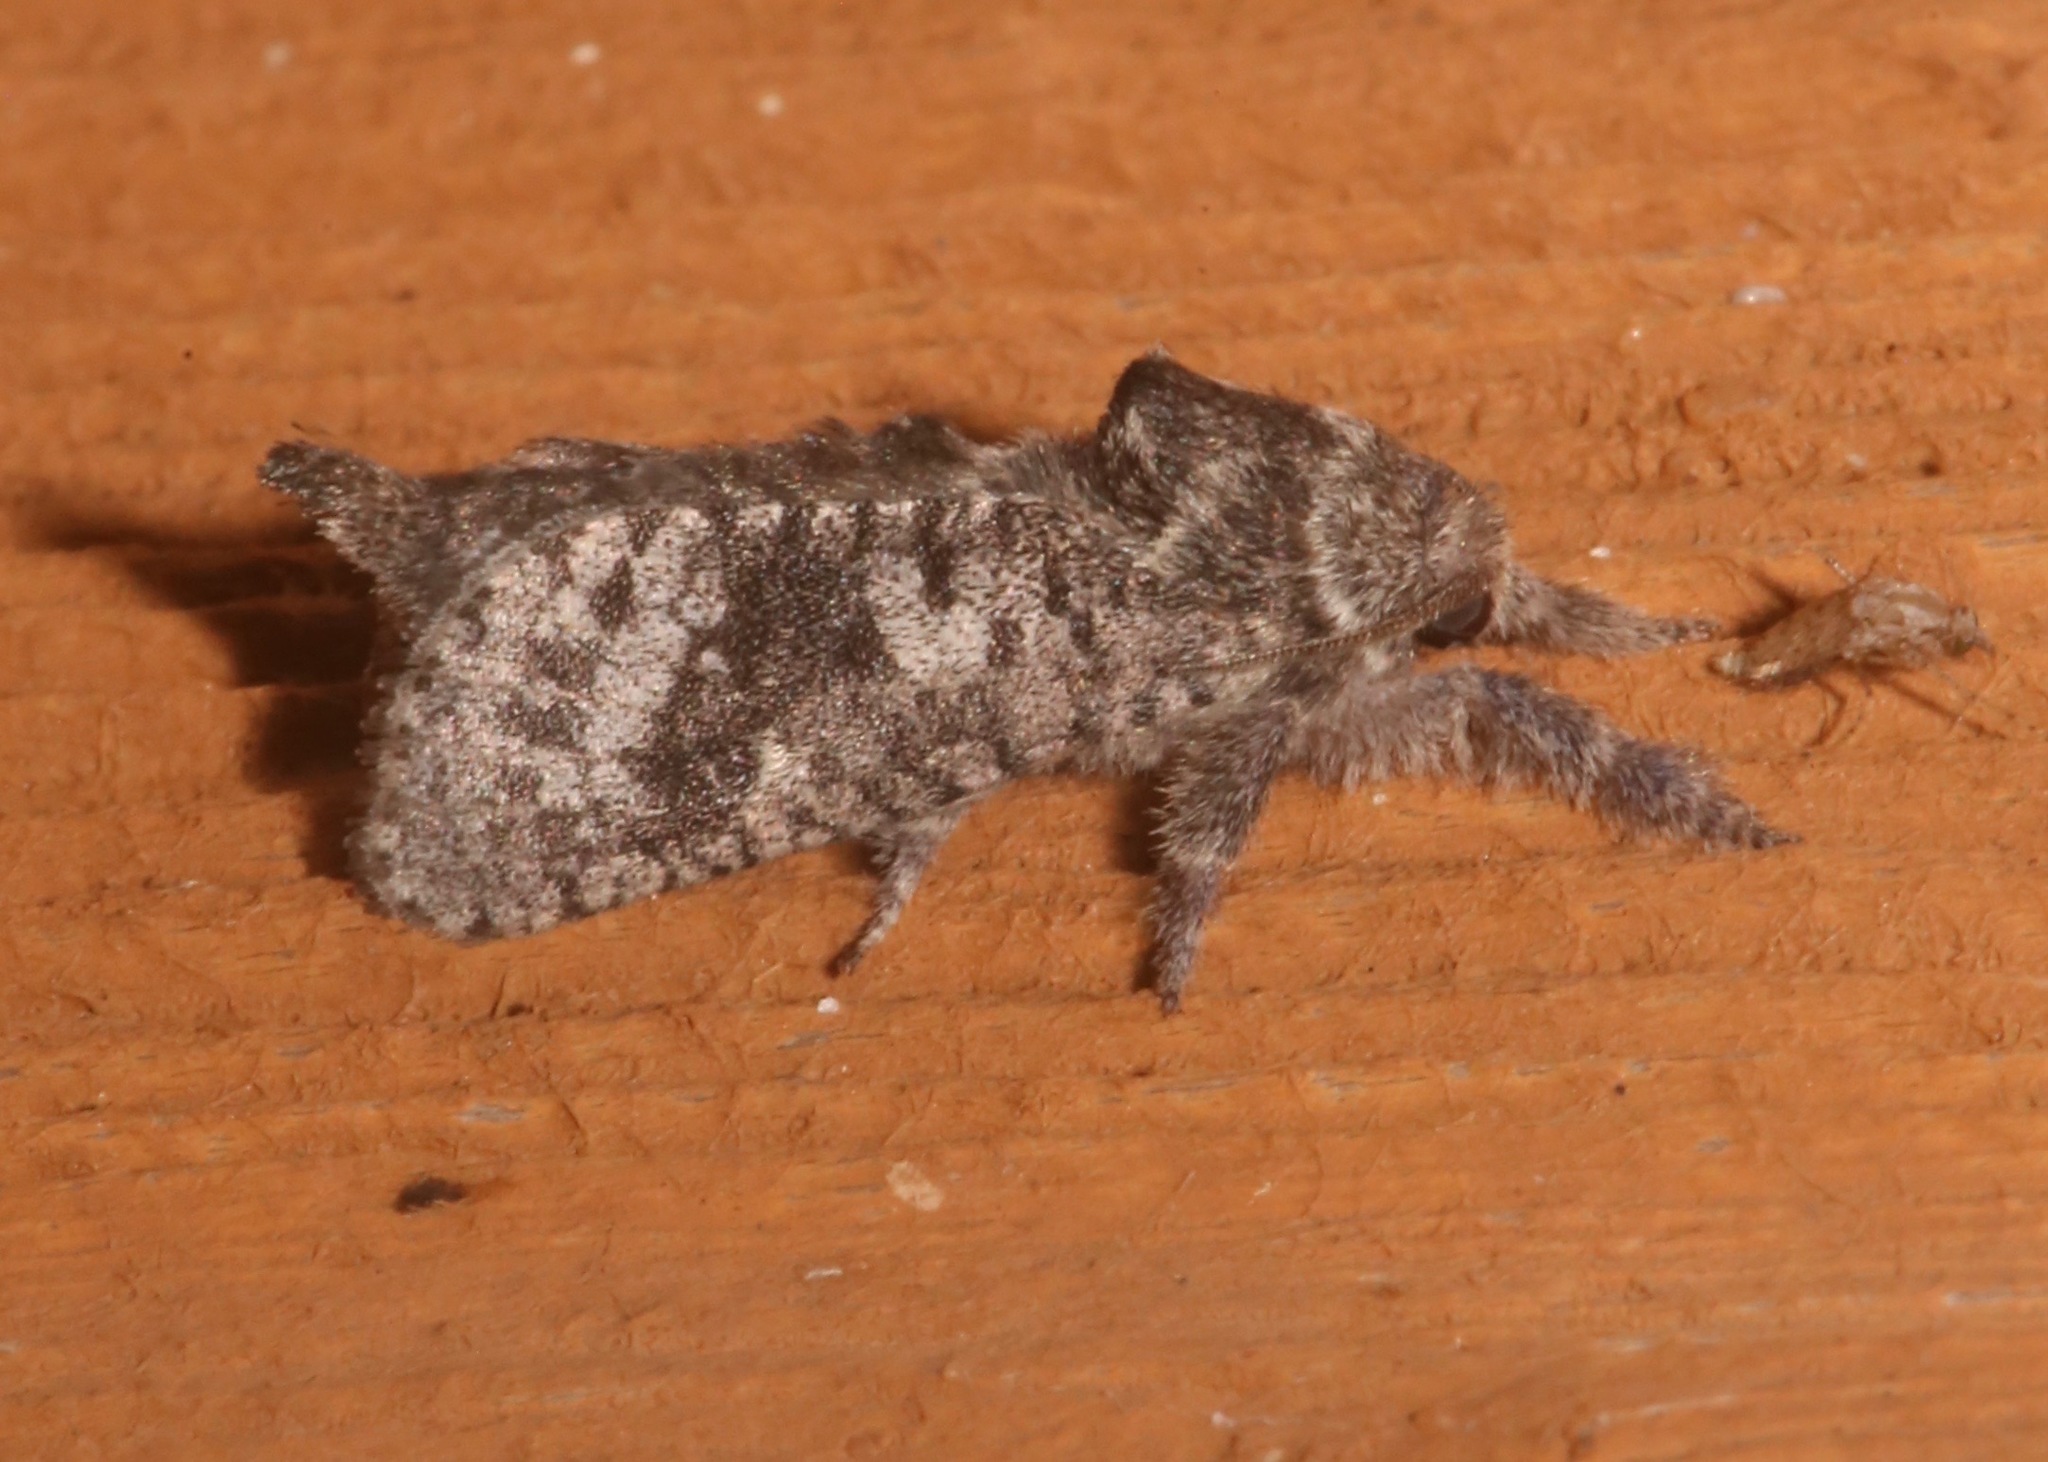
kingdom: Animalia
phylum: Arthropoda
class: Insecta
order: Lepidoptera
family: Cossidae
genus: Givira
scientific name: Givira francesca
